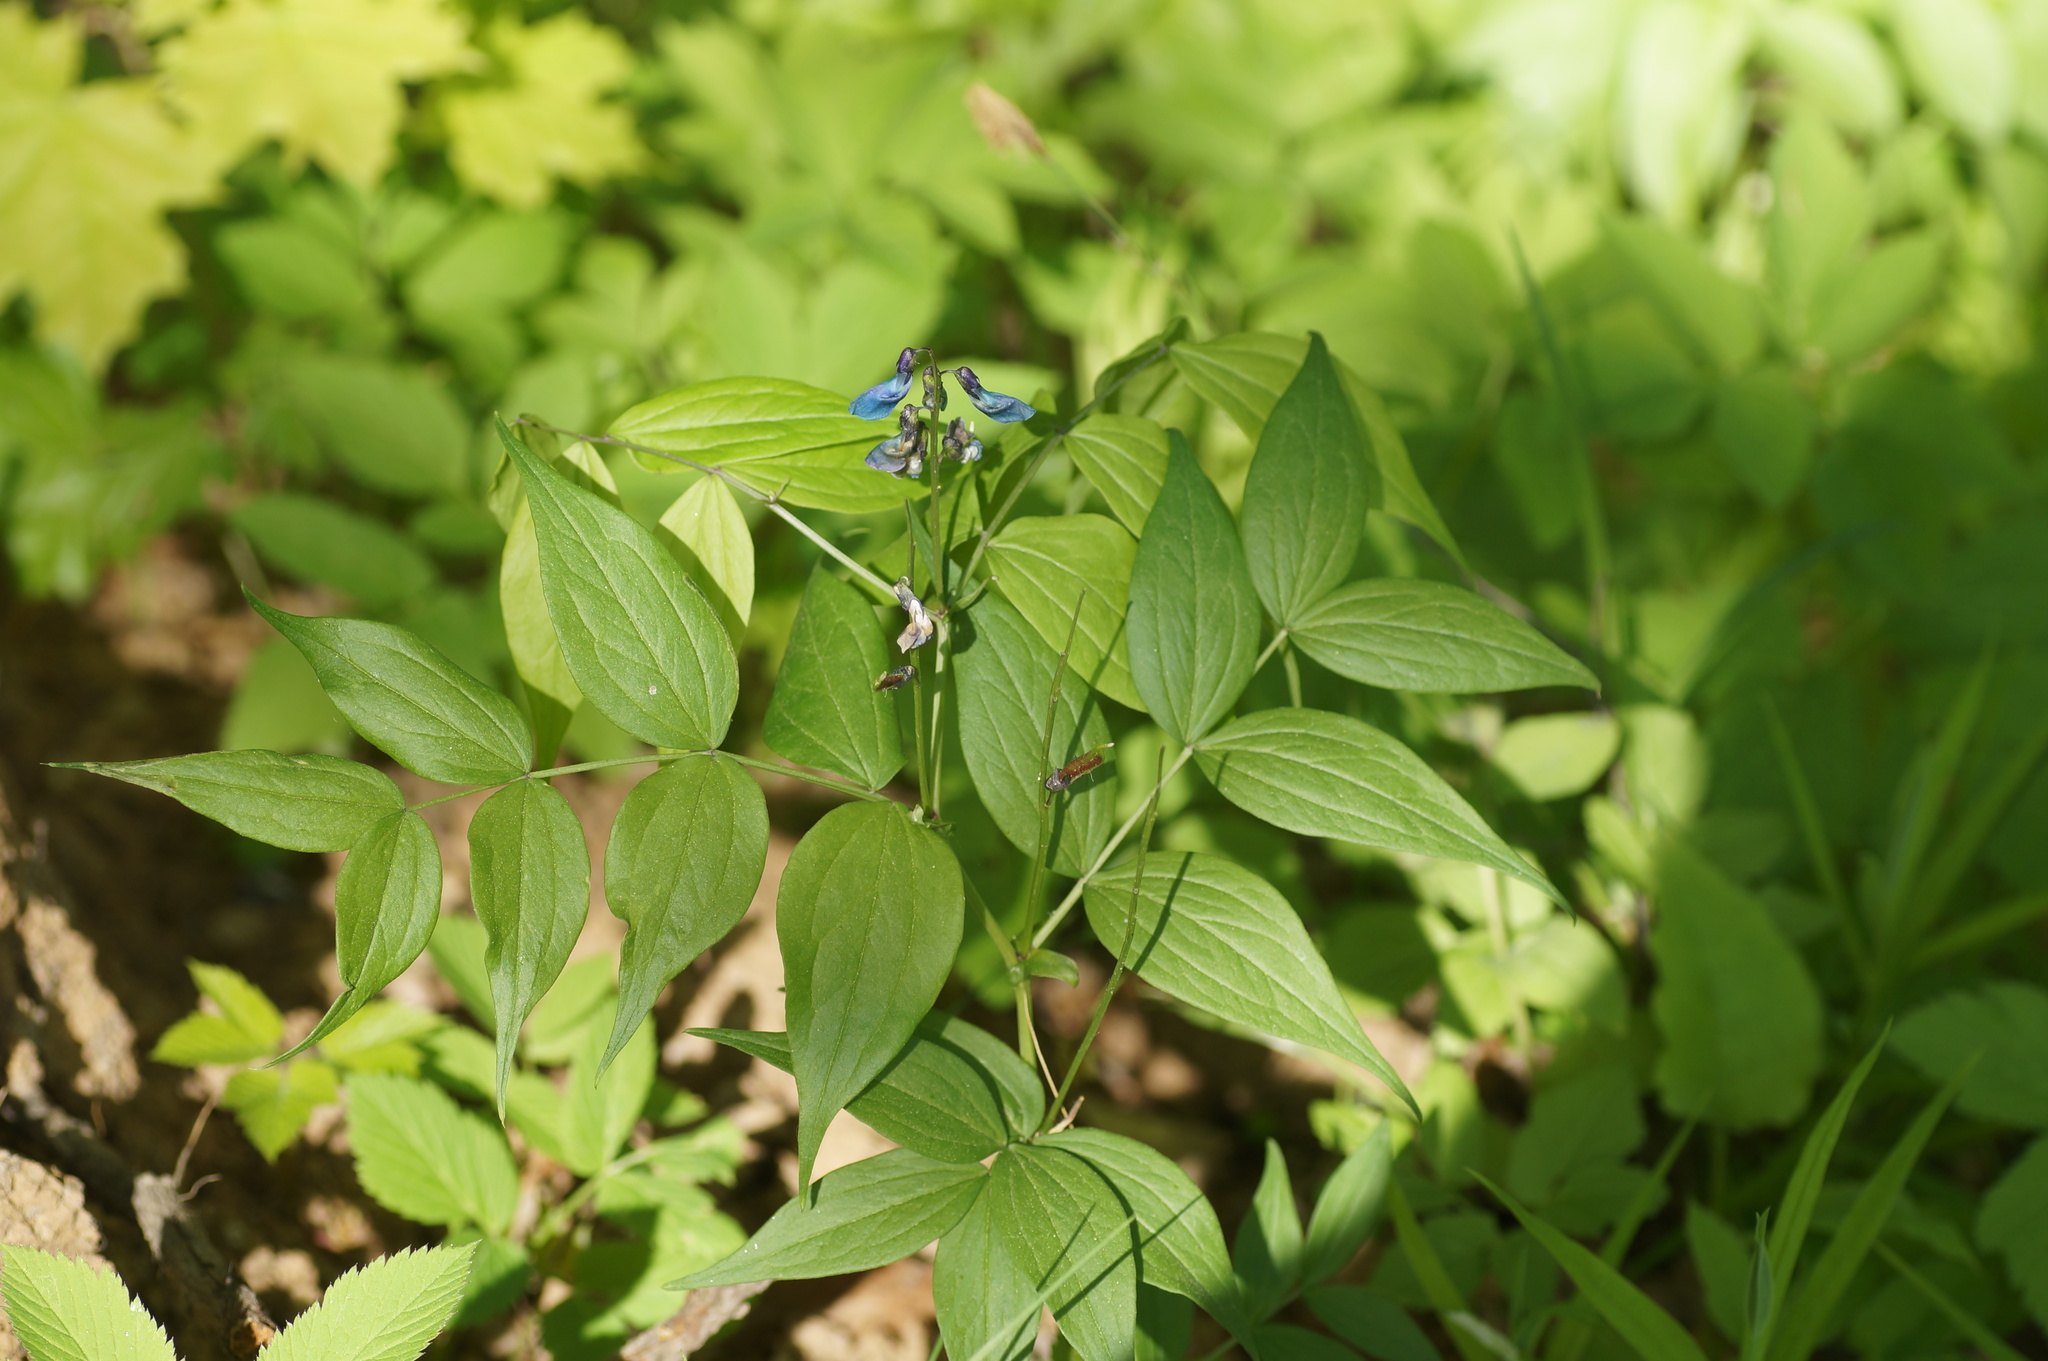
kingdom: Plantae
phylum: Tracheophyta
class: Magnoliopsida
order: Fabales
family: Fabaceae
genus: Lathyrus
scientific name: Lathyrus vernus
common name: Spring pea
